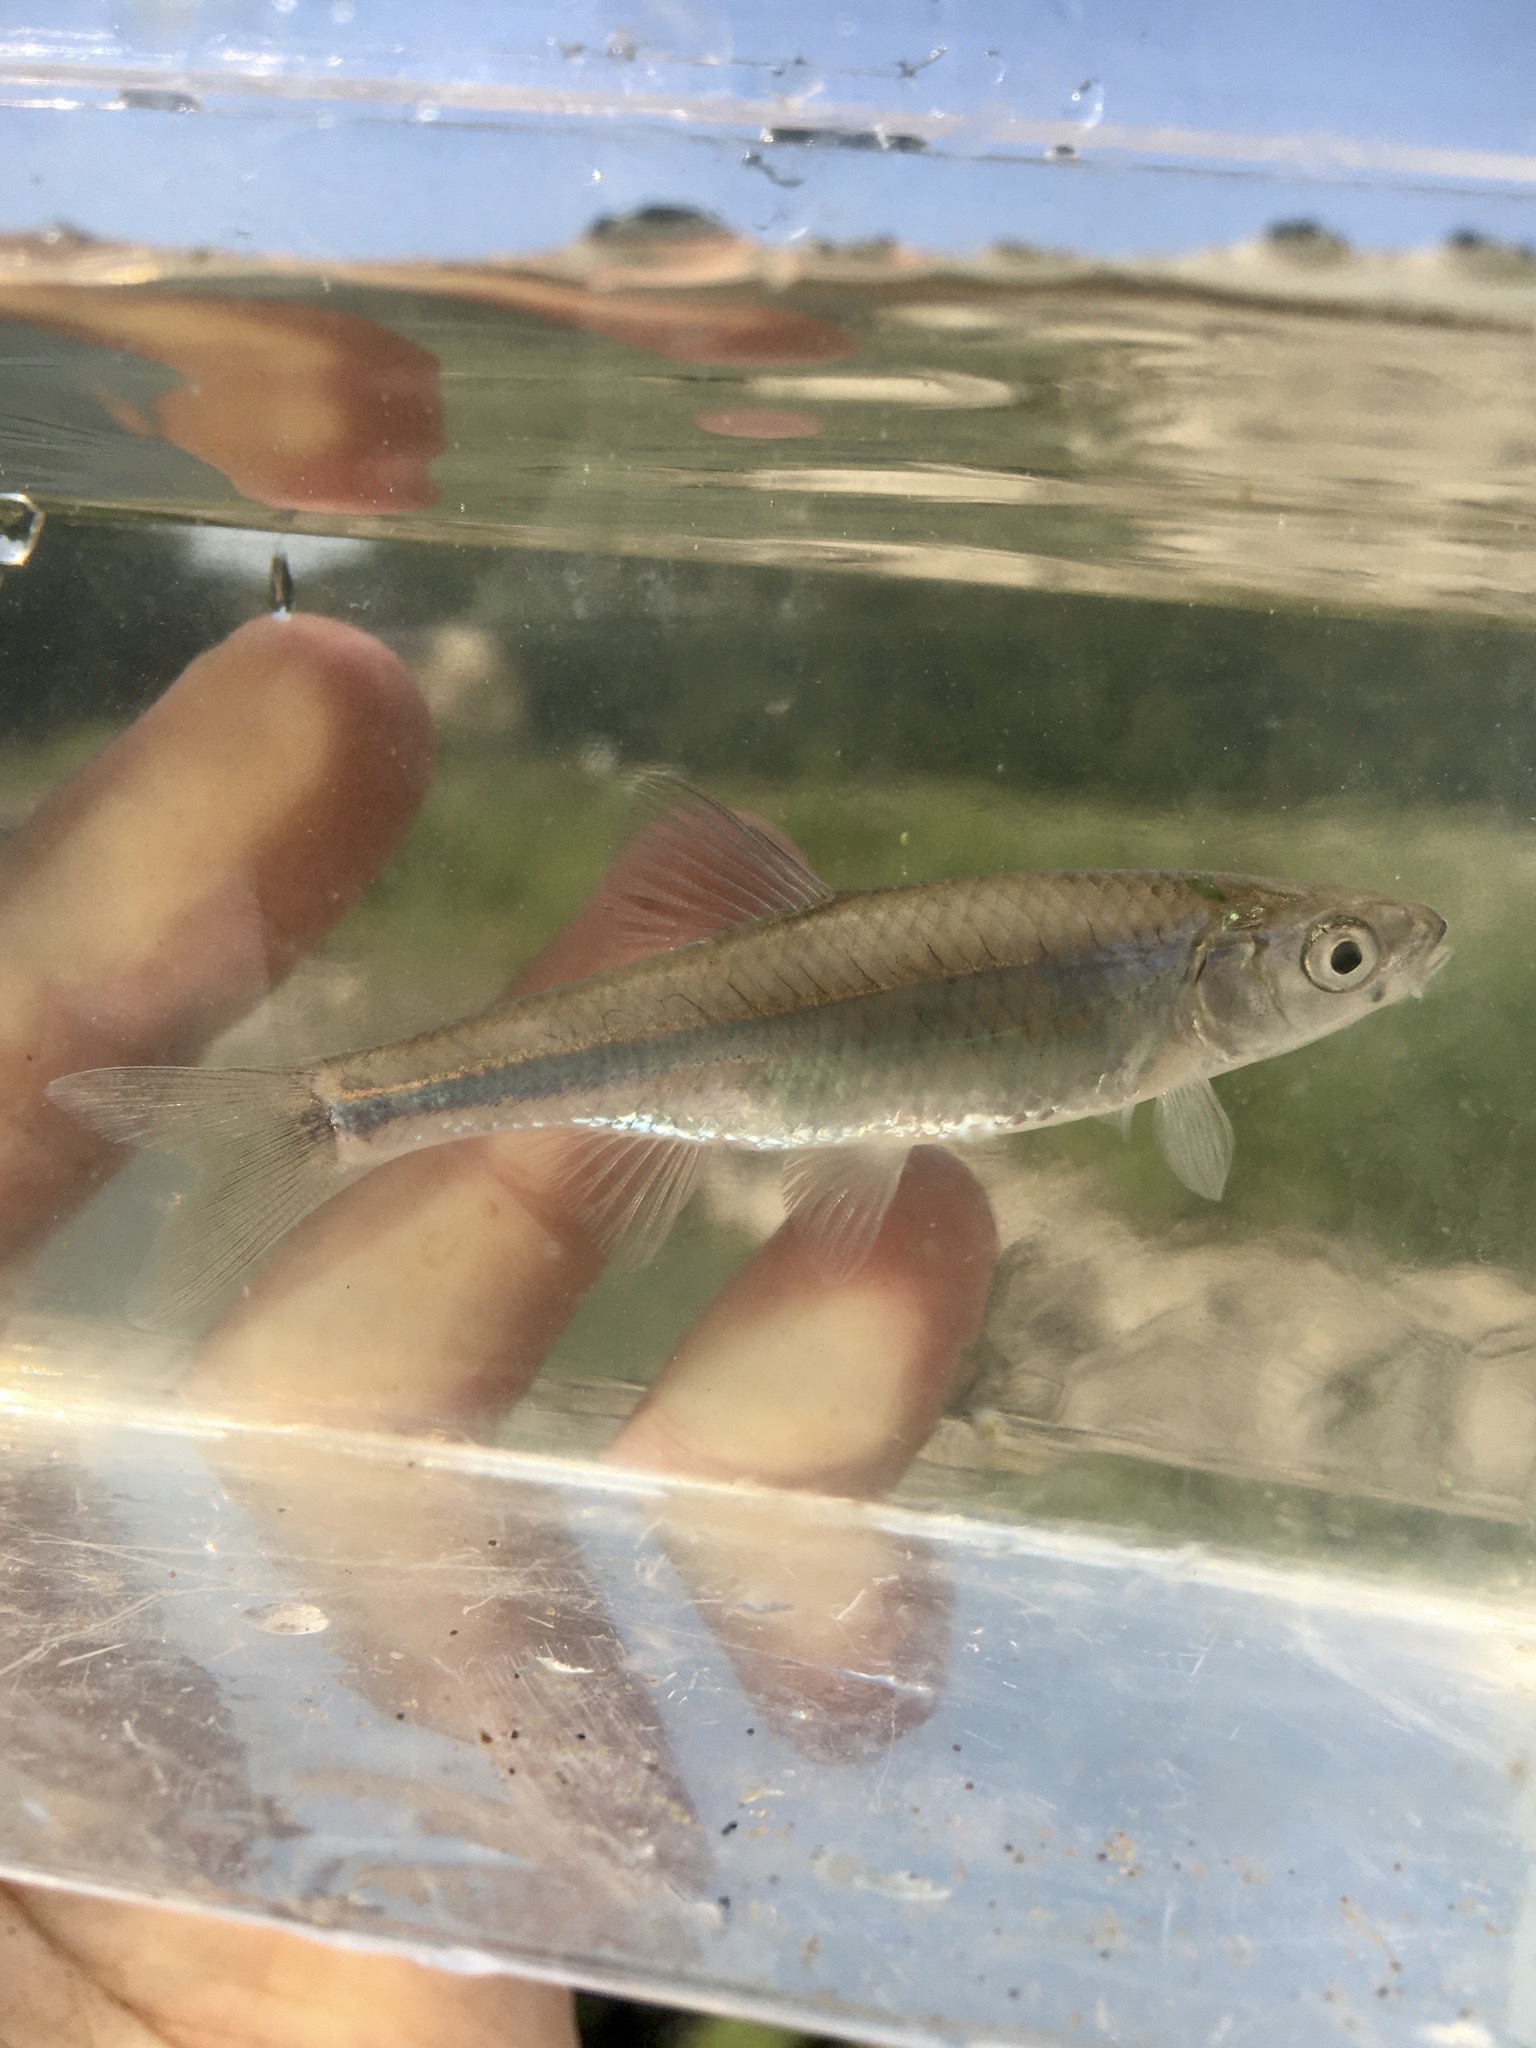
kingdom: Animalia
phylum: Chordata
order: Cypriniformes
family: Cyprinidae
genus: Cyprinella
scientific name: Cyprinella spiloptera
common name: Spotfin shiner
